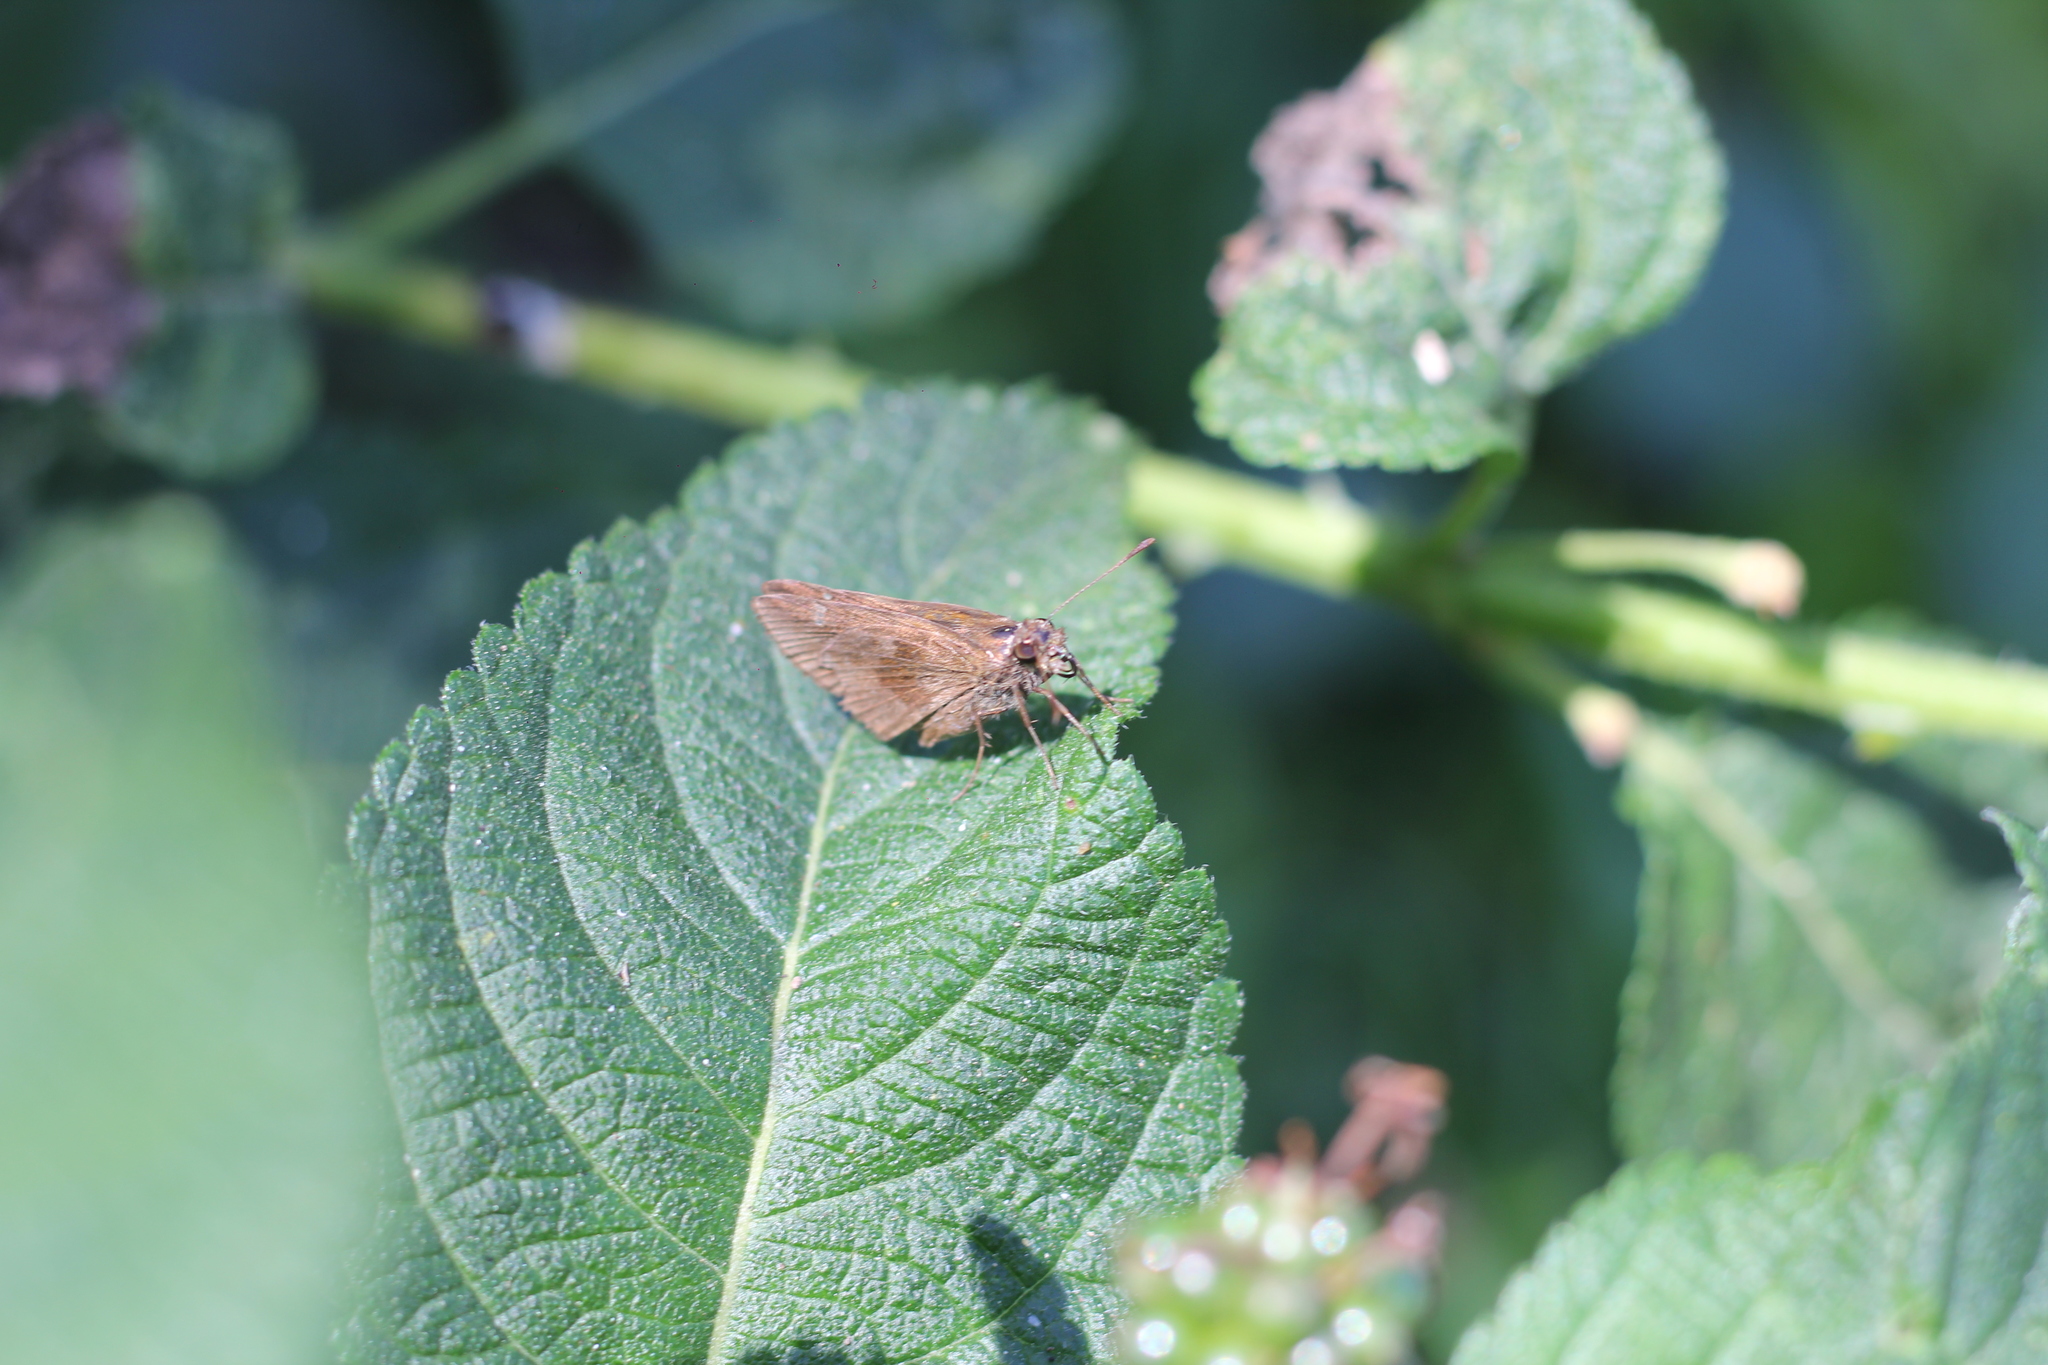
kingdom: Animalia
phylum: Arthropoda
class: Insecta
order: Lepidoptera
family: Hesperiidae
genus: Cymaenes
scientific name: Cymaenes
